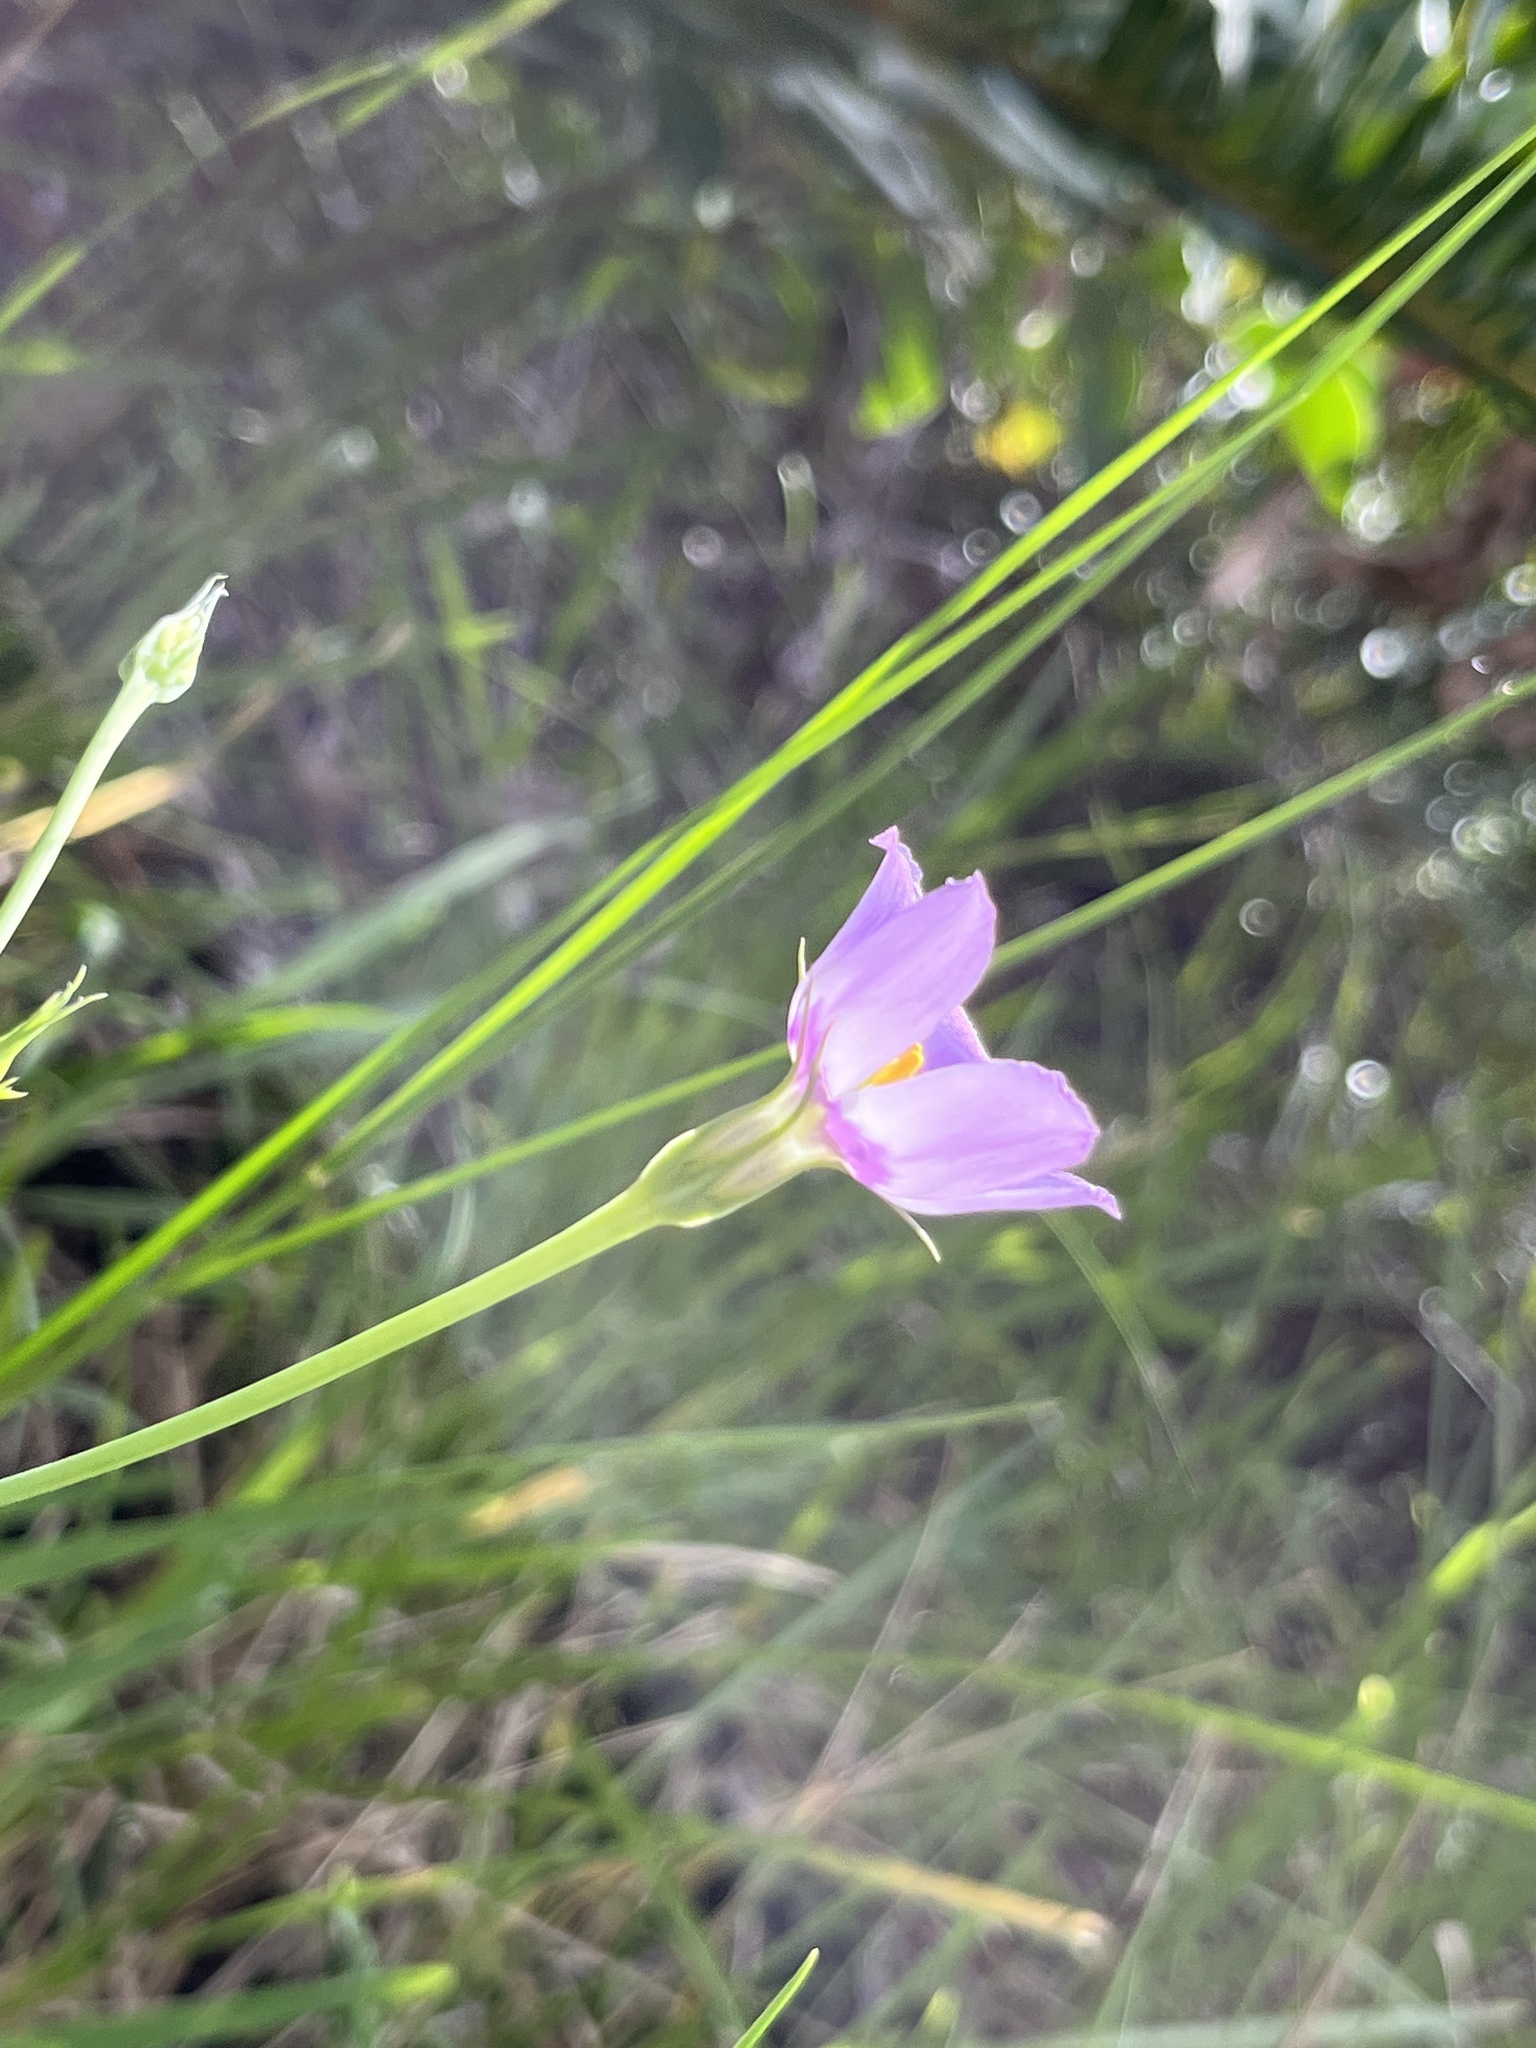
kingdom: Plantae
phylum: Tracheophyta
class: Magnoliopsida
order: Gentianales
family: Gentianaceae
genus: Eustoma
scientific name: Eustoma exaltatum
